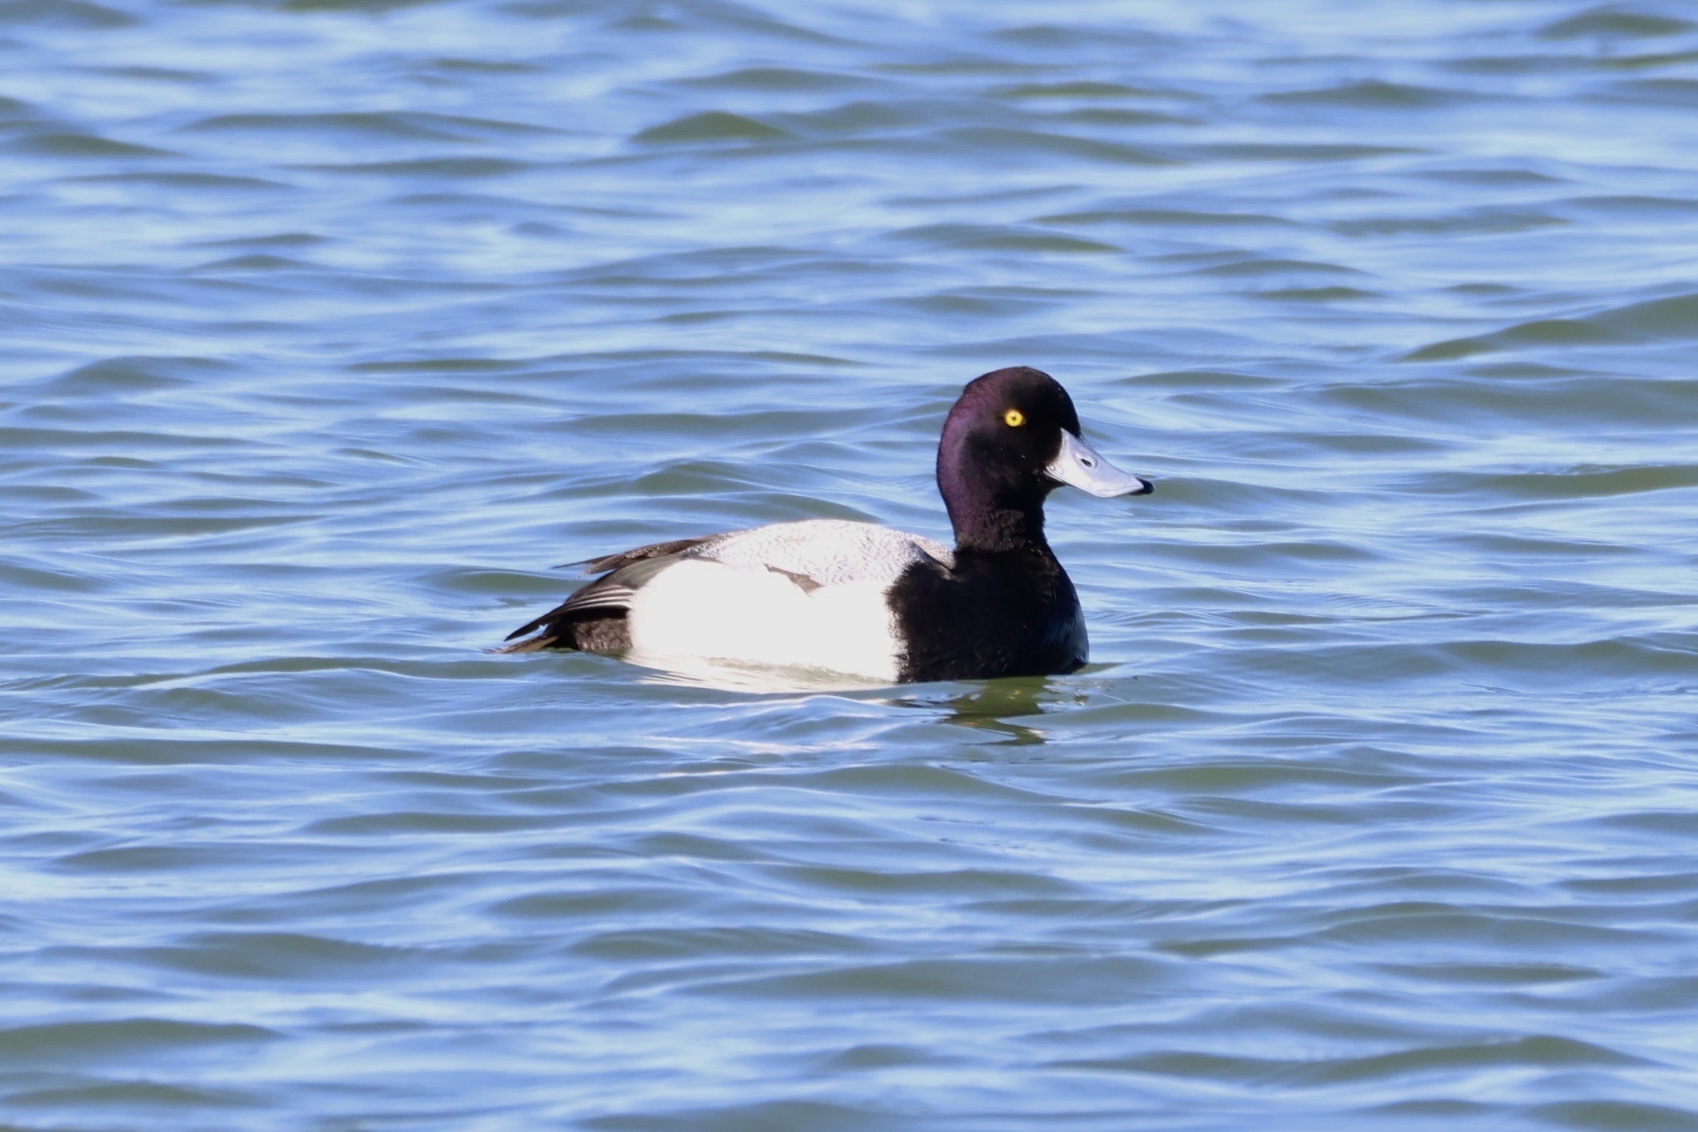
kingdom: Animalia
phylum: Chordata
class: Aves
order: Anseriformes
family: Anatidae
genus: Aythya
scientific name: Aythya affinis
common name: Lesser scaup
